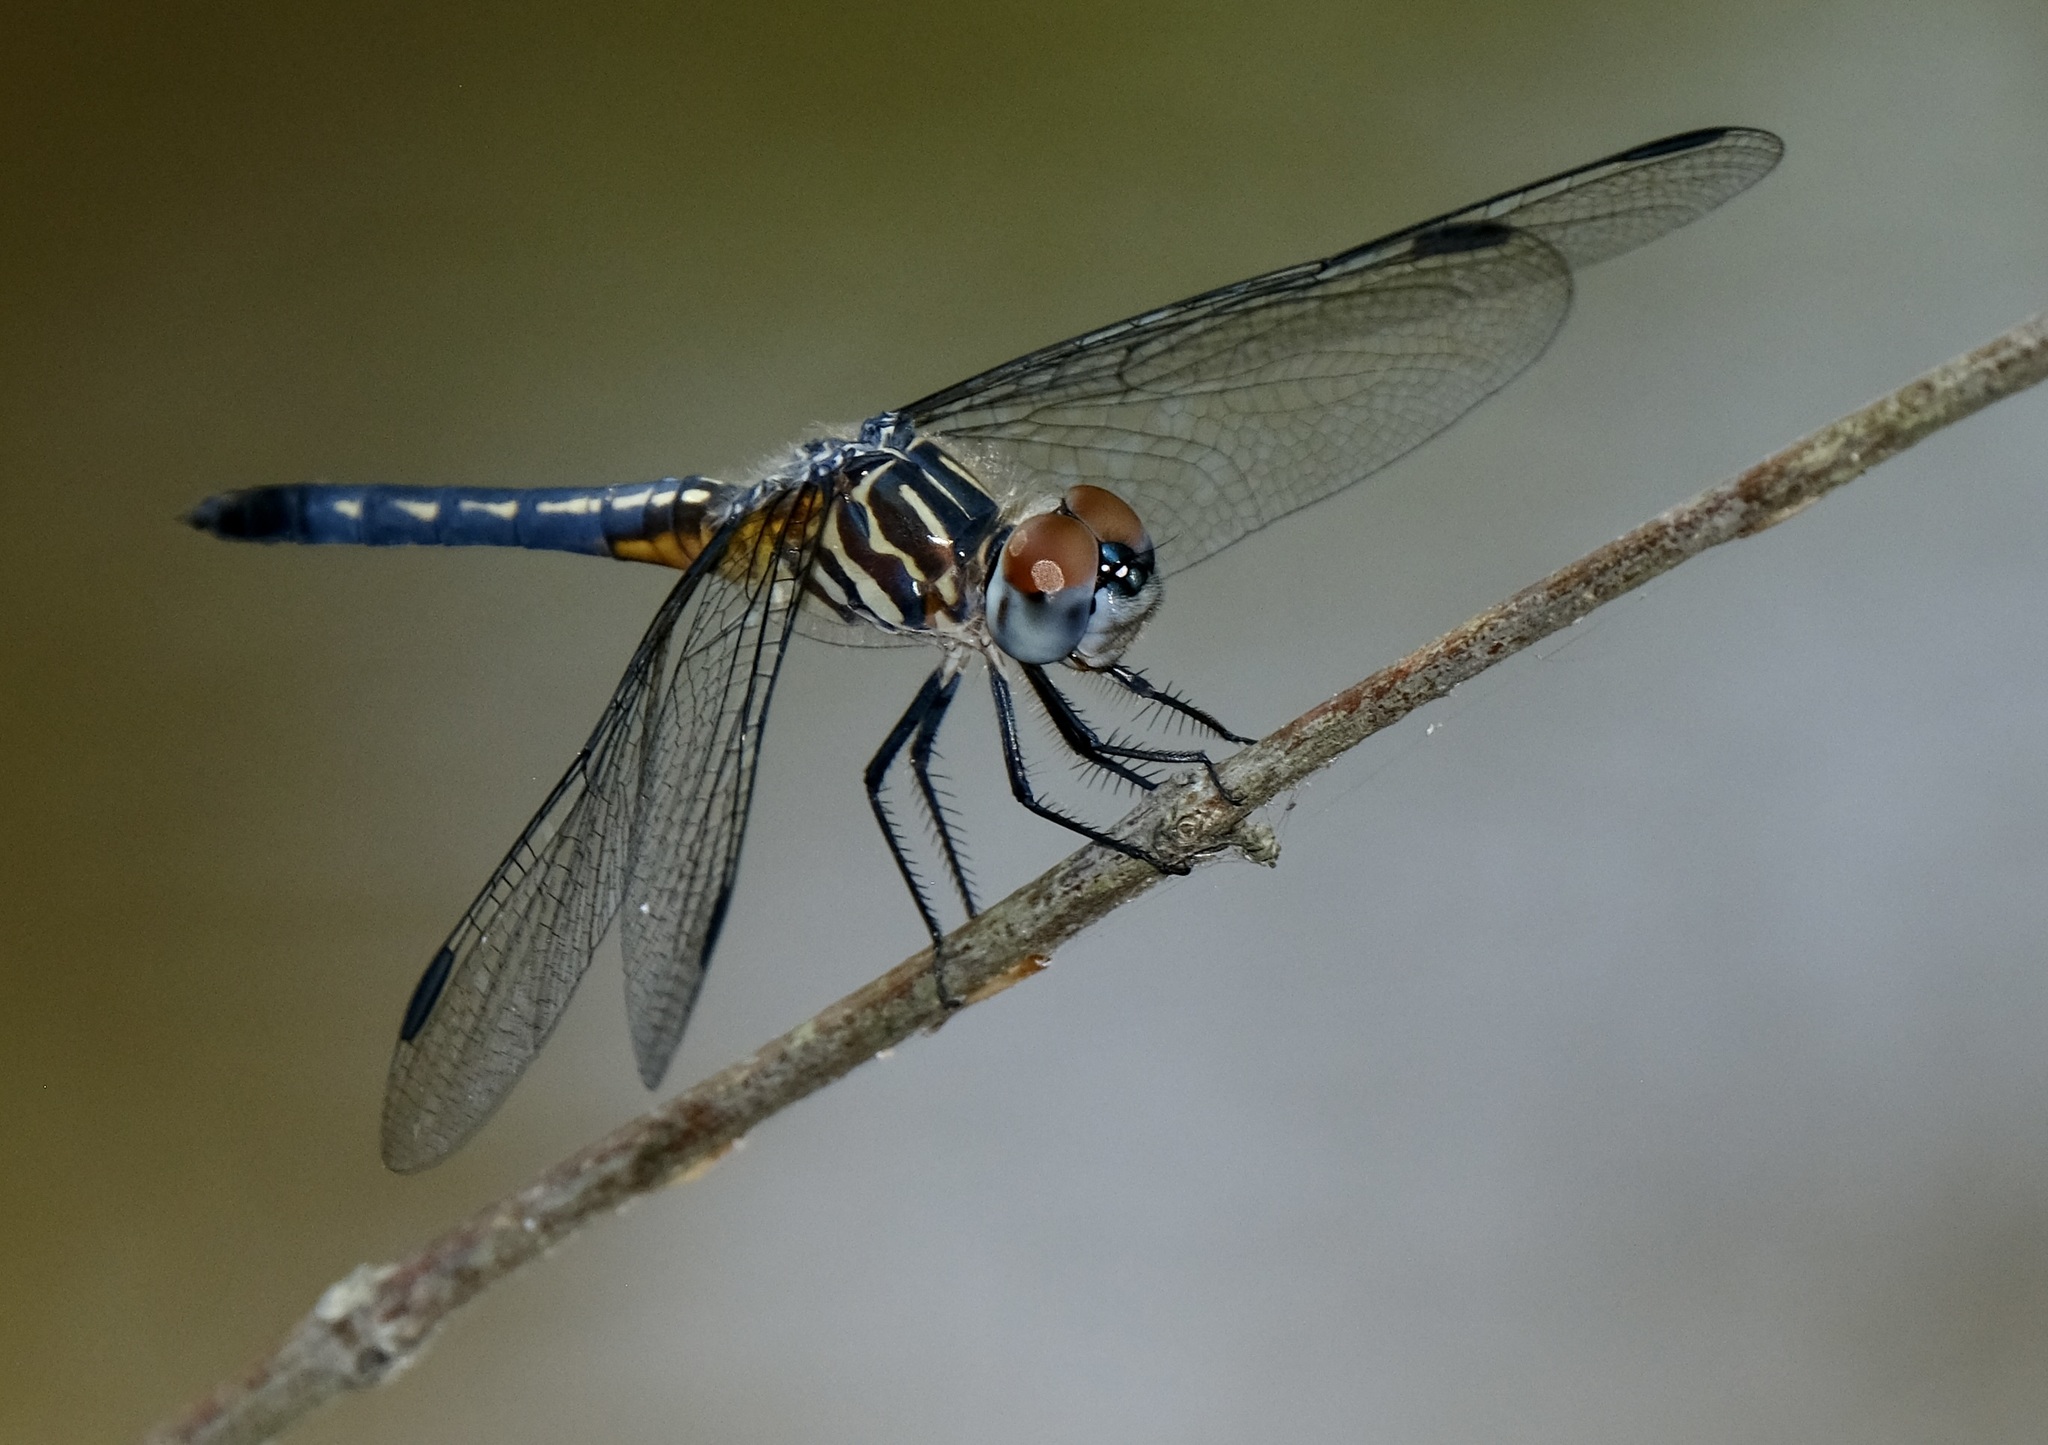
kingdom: Animalia
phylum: Arthropoda
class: Insecta
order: Odonata
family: Libellulidae
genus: Pachydiplax
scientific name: Pachydiplax longipennis
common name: Blue dasher
